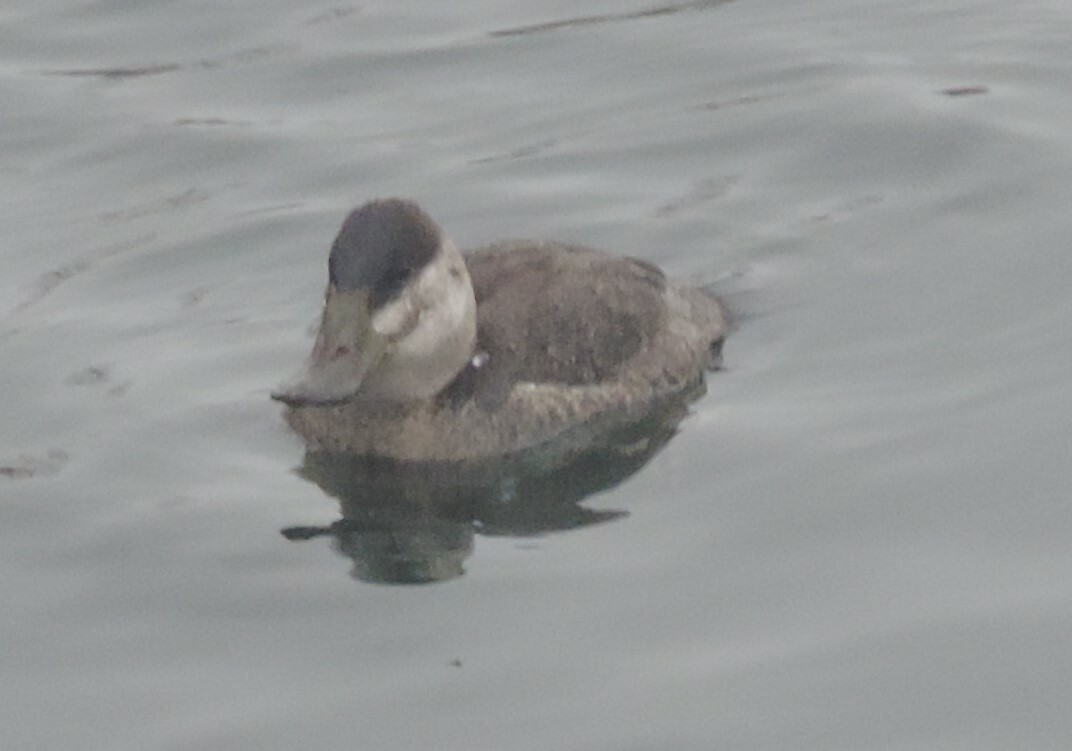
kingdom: Animalia
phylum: Chordata
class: Aves
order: Anseriformes
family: Anatidae
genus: Oxyura
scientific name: Oxyura jamaicensis
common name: Ruddy duck
